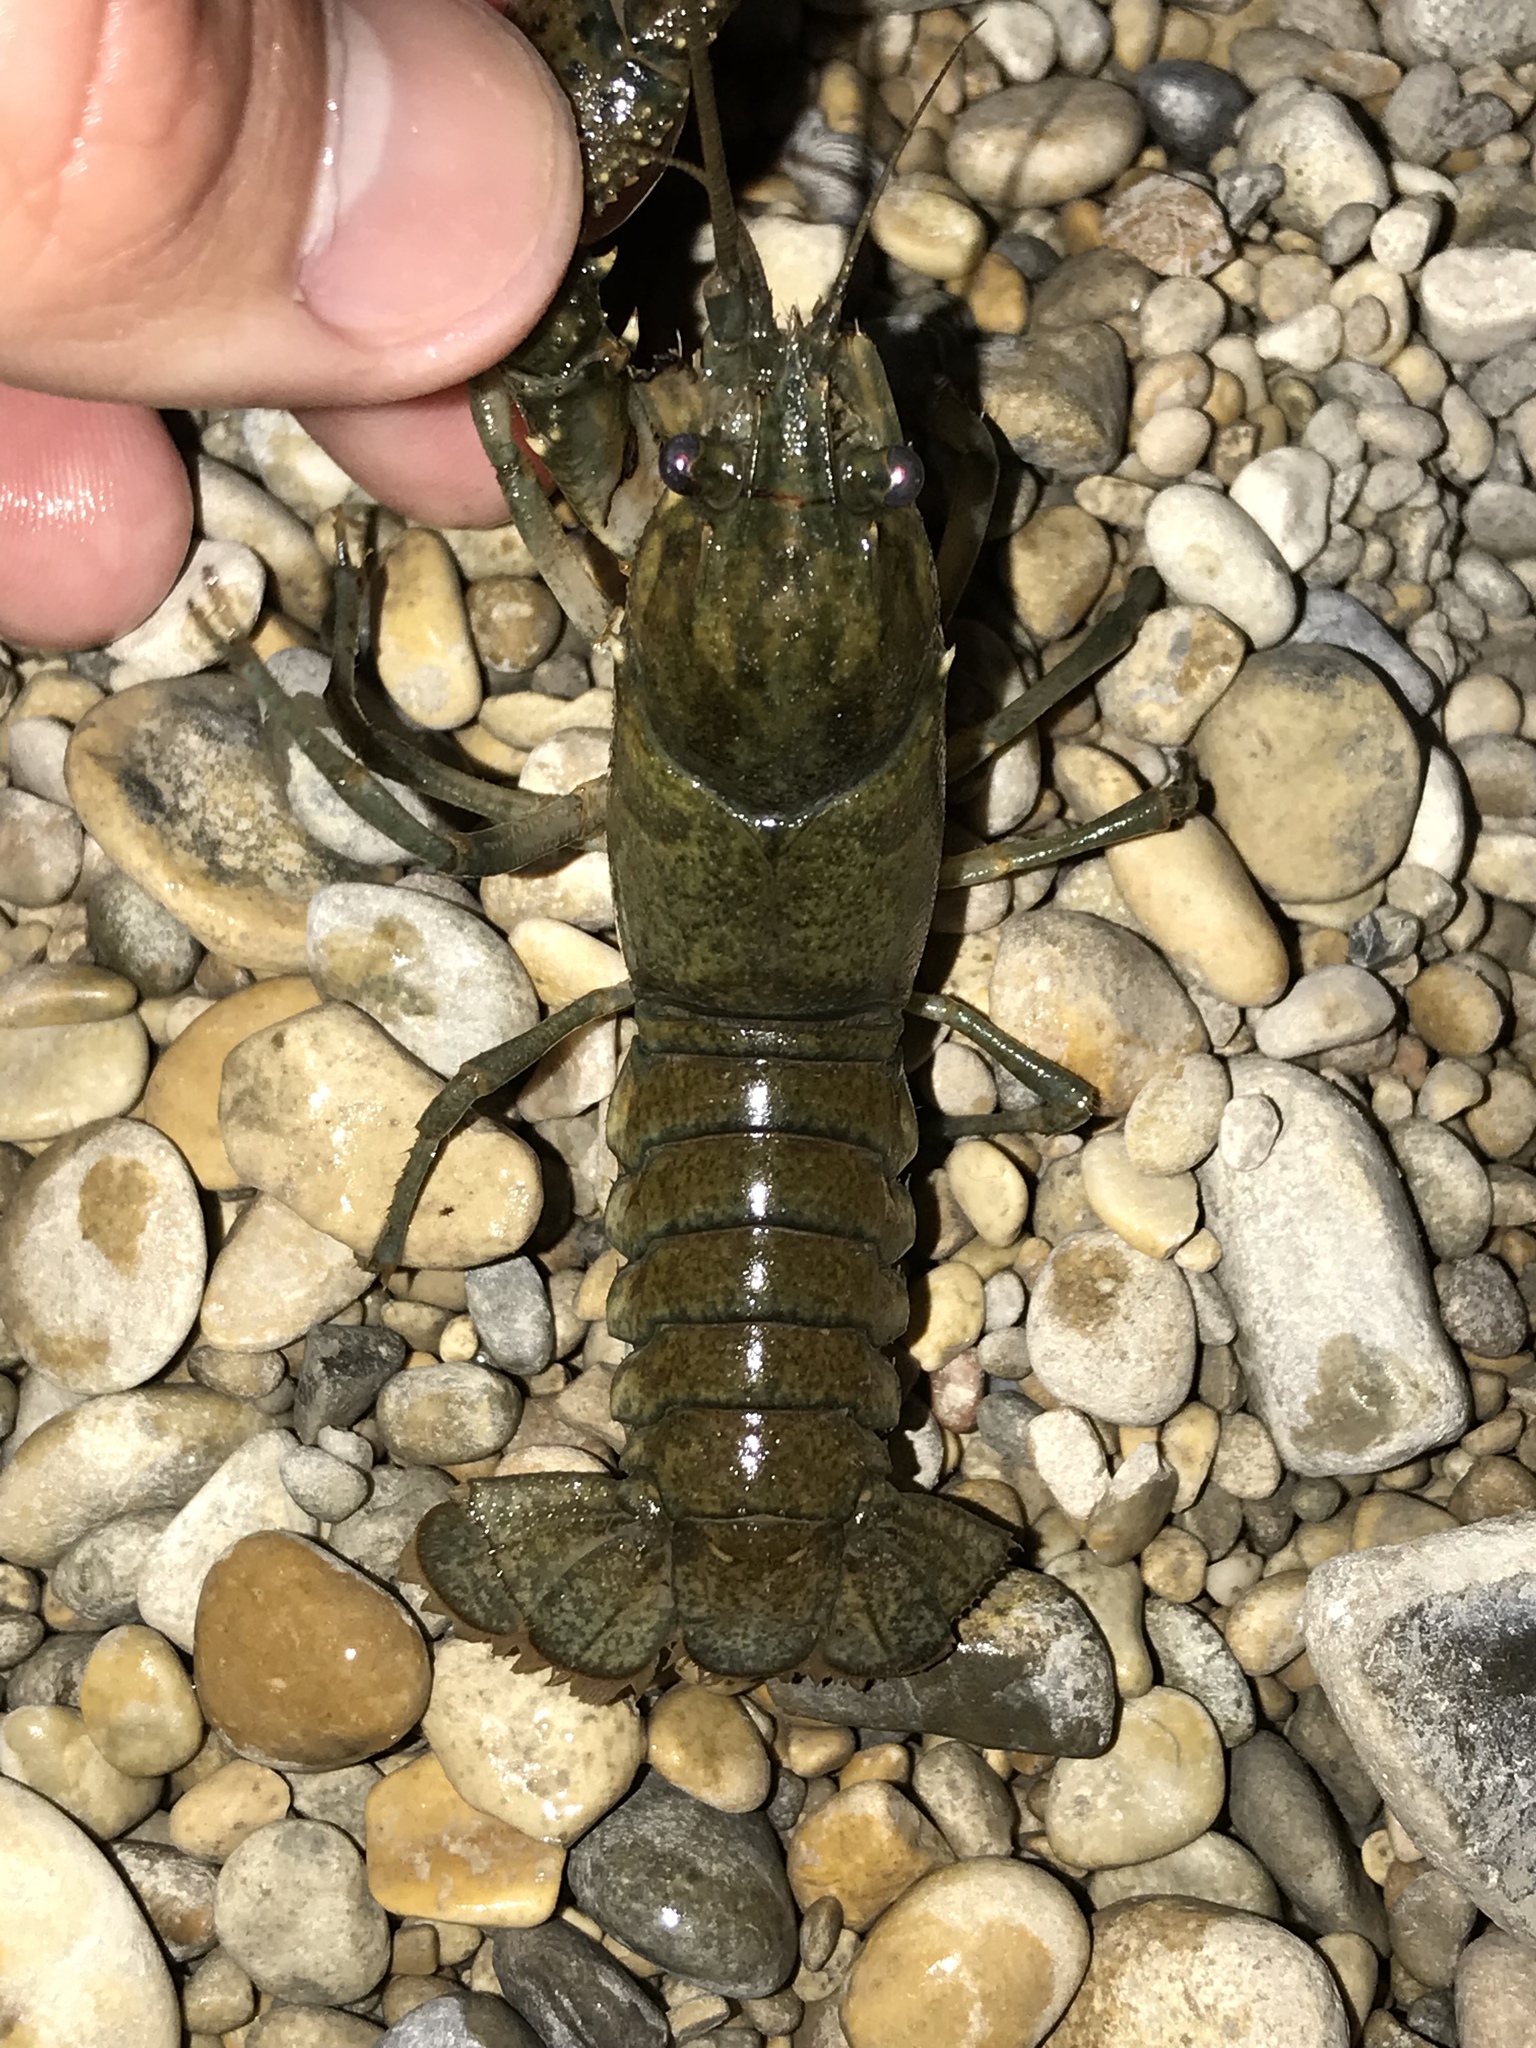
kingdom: Animalia
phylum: Arthropoda
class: Malacostraca
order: Decapoda
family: Cambaridae
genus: Faxonius
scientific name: Faxonius occidentalis
